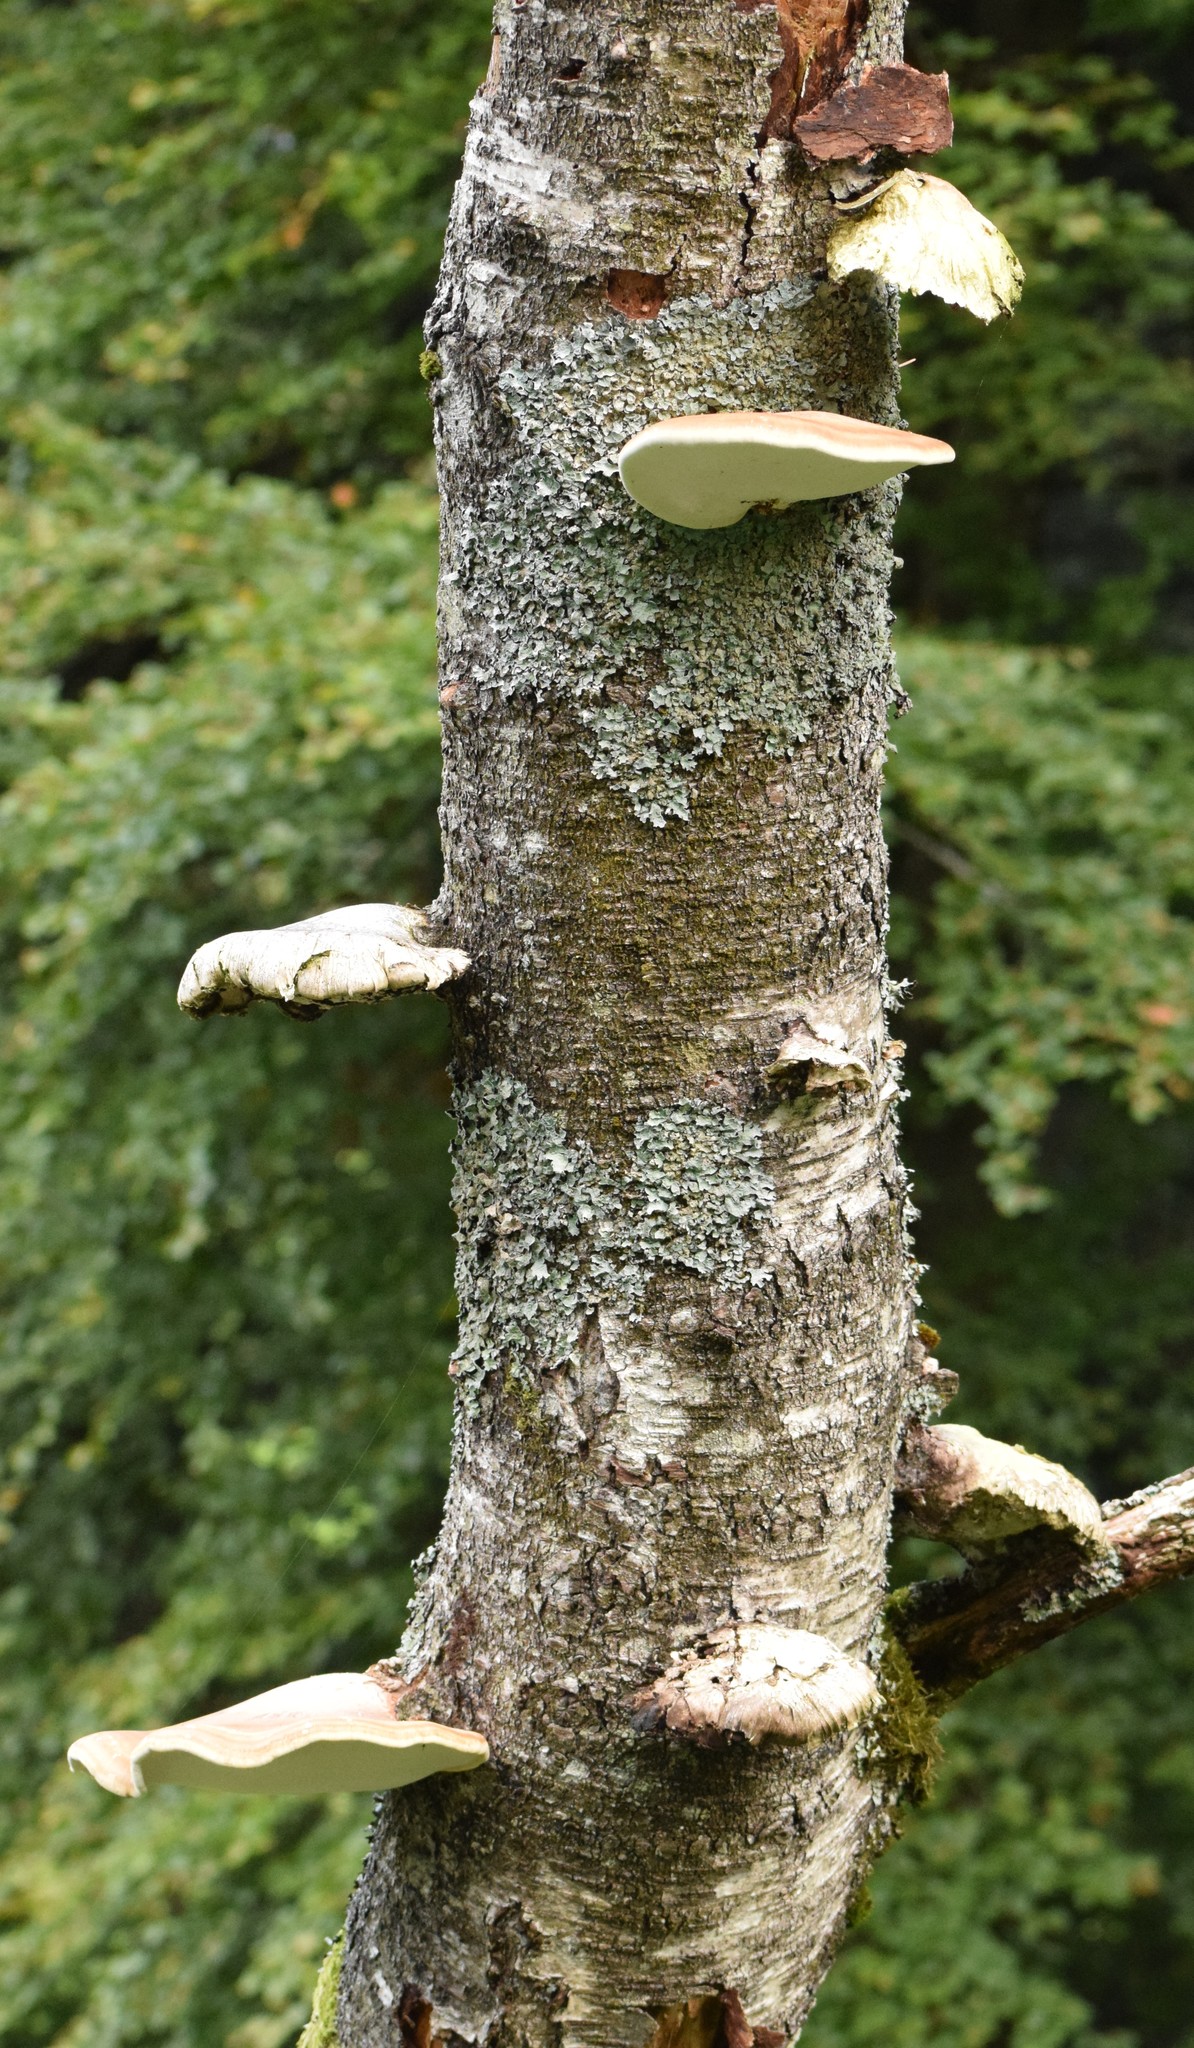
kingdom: Fungi
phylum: Basidiomycota
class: Agaricomycetes
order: Polyporales
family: Fomitopsidaceae
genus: Fomitopsis
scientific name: Fomitopsis betulina
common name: Birch polypore
